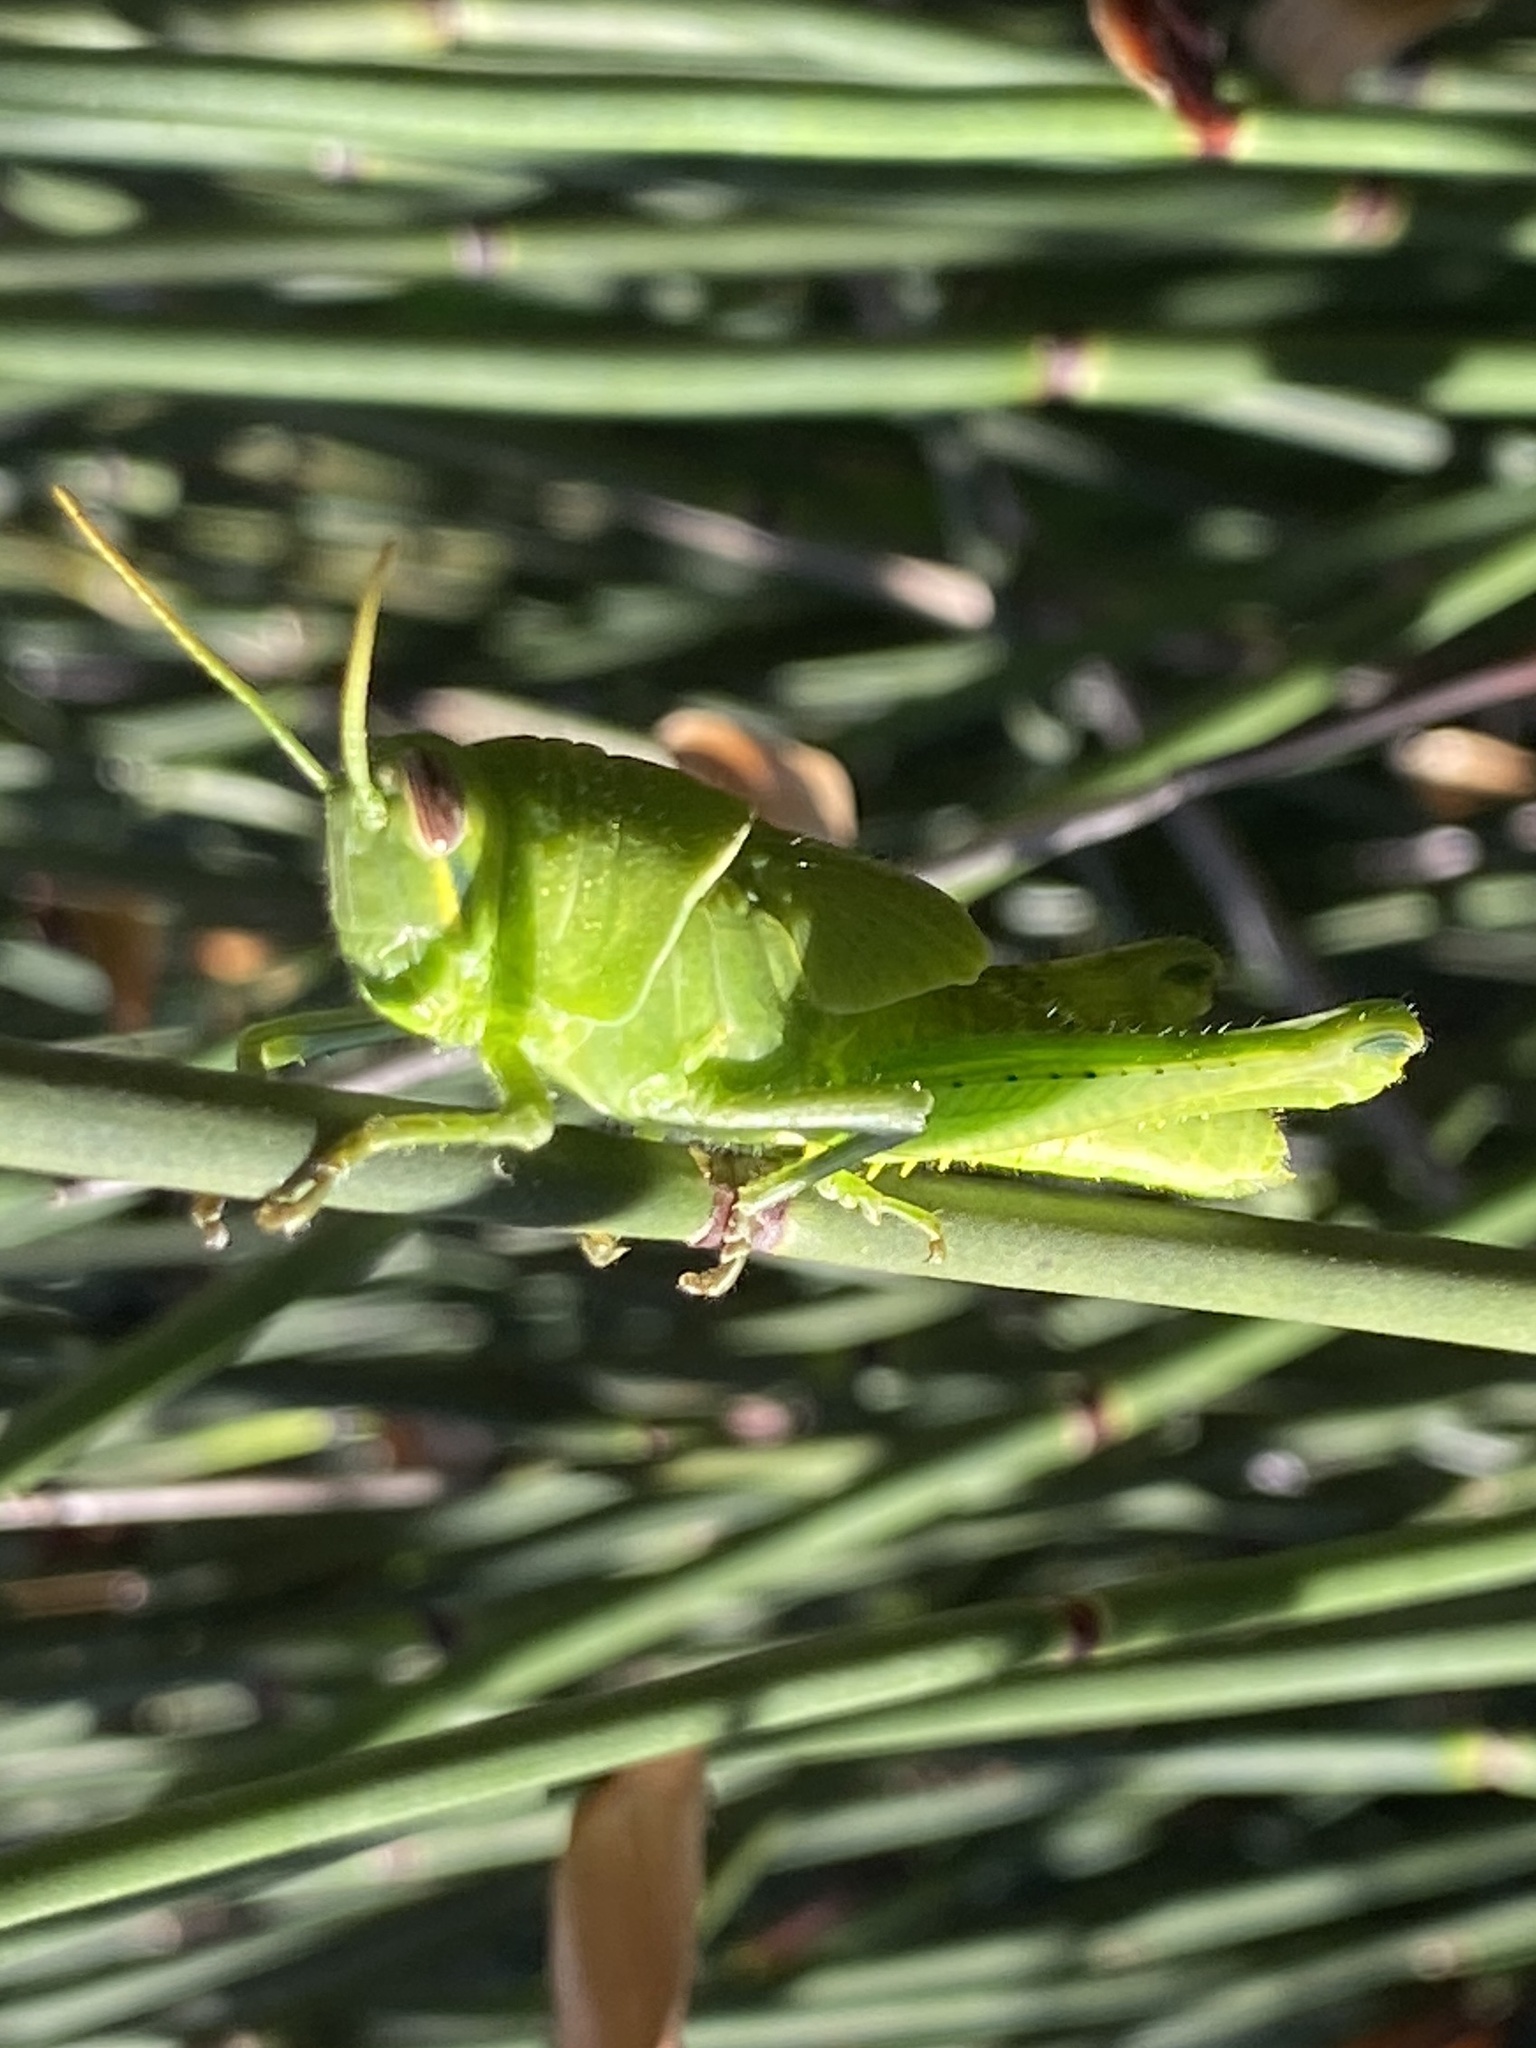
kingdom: Animalia
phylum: Arthropoda
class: Insecta
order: Orthoptera
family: Acrididae
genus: Schistocerca
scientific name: Schistocerca nitens
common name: Vagrant grasshopper
